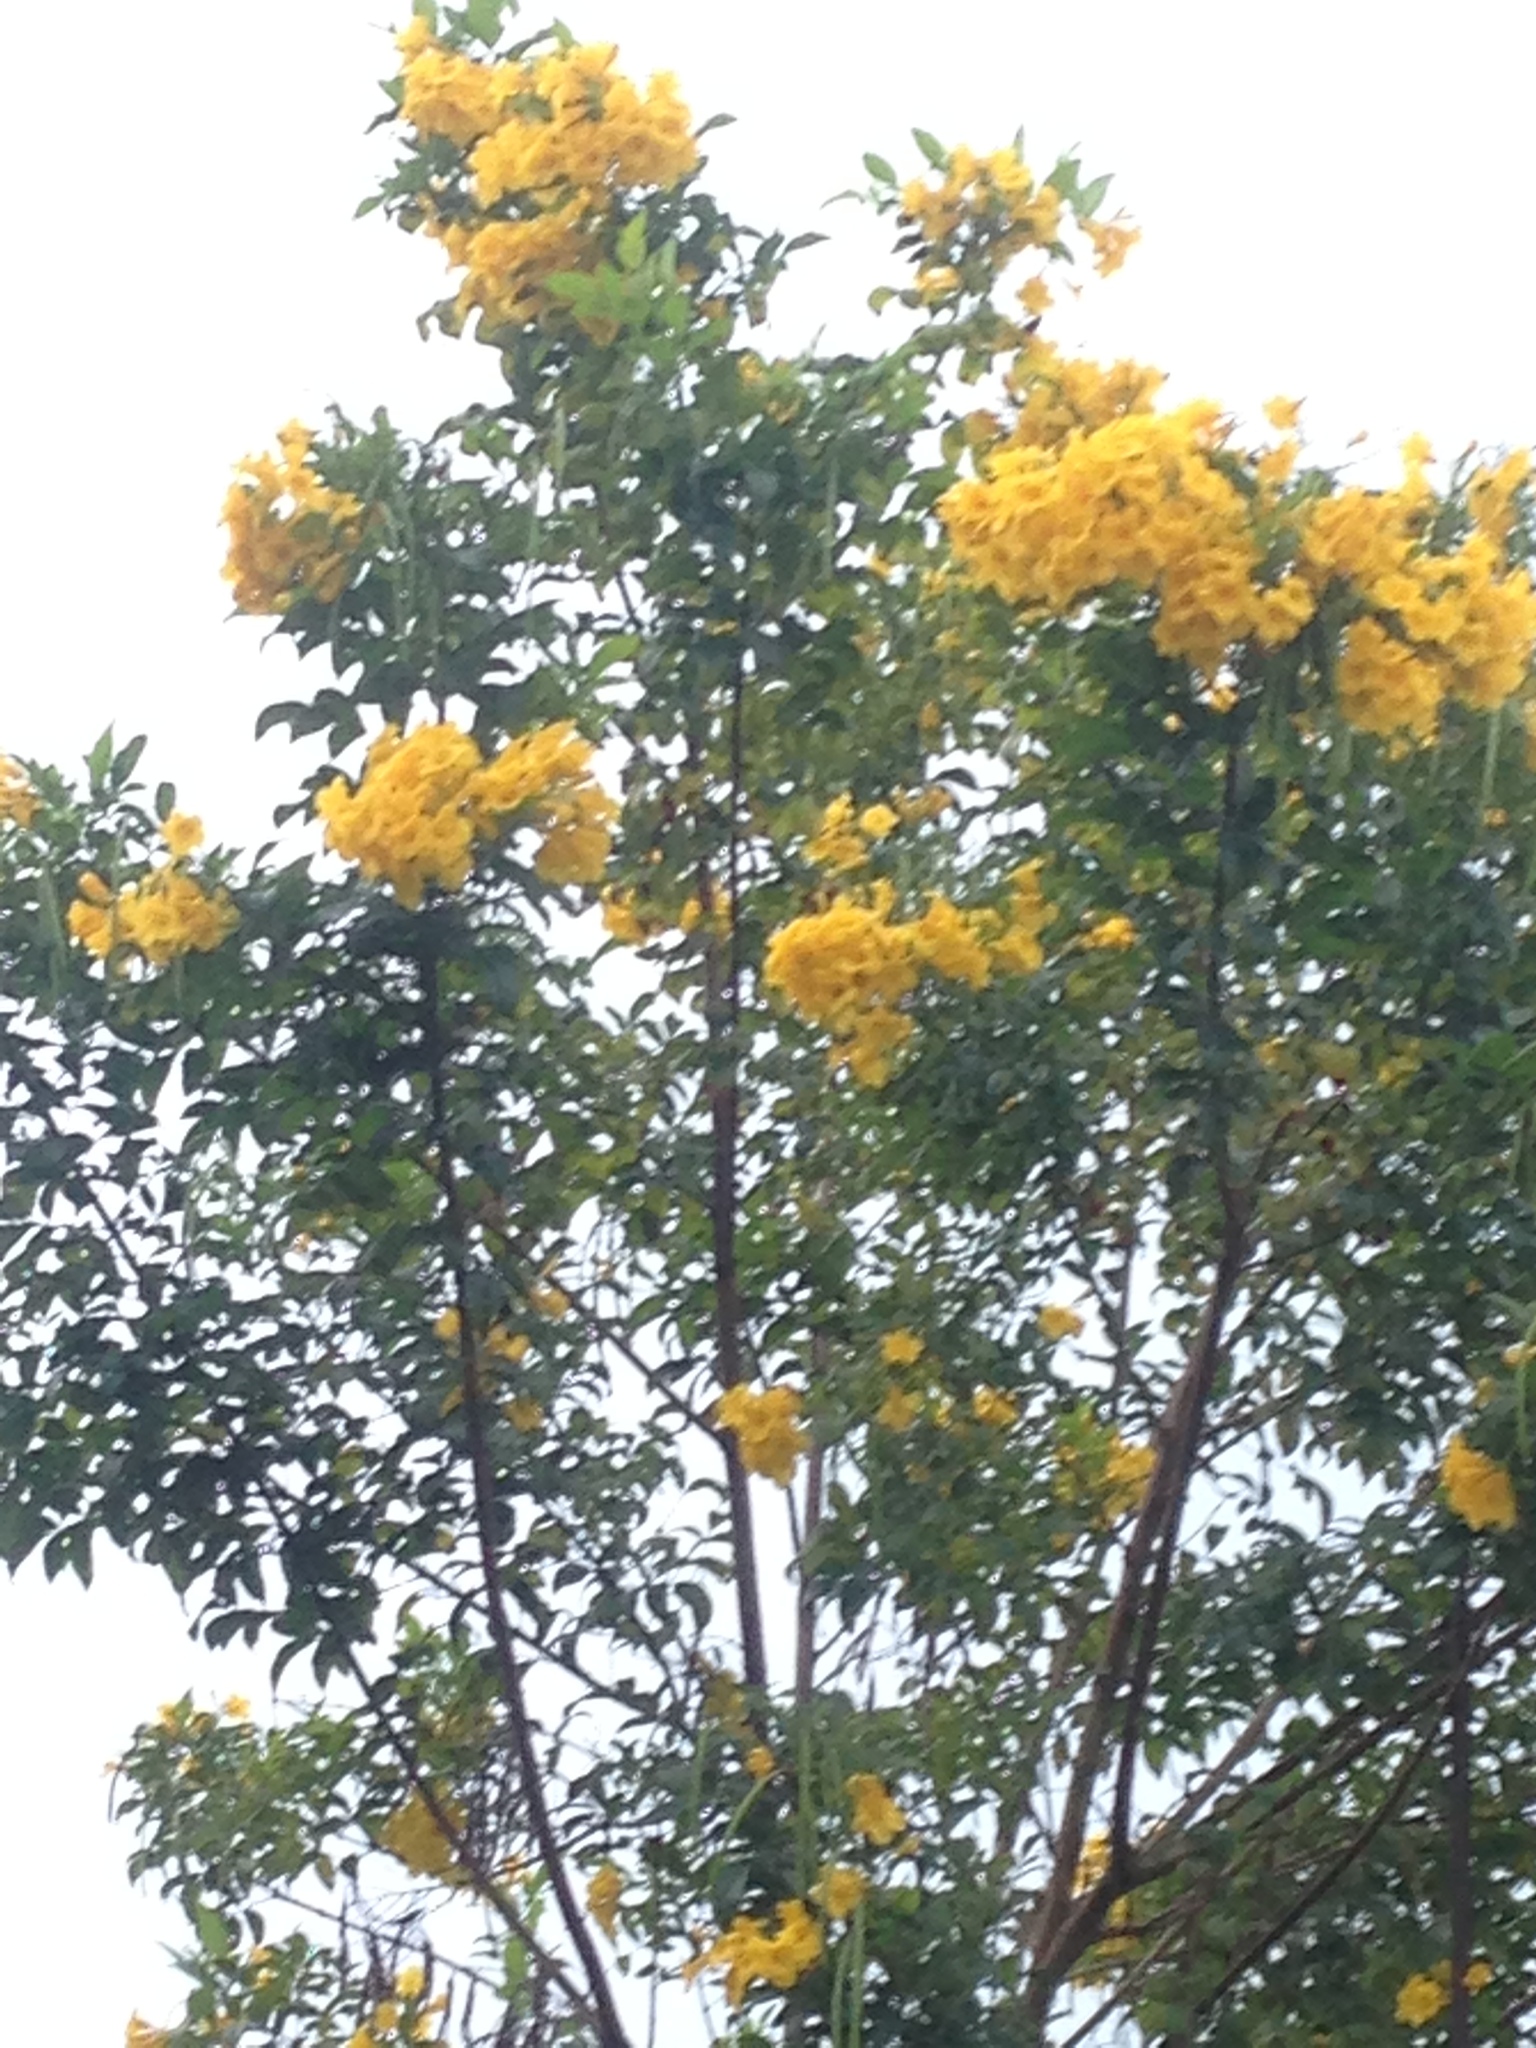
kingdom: Plantae
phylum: Tracheophyta
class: Magnoliopsida
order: Lamiales
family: Bignoniaceae
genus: Tecoma
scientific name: Tecoma stans
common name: Yellow trumpetbush
